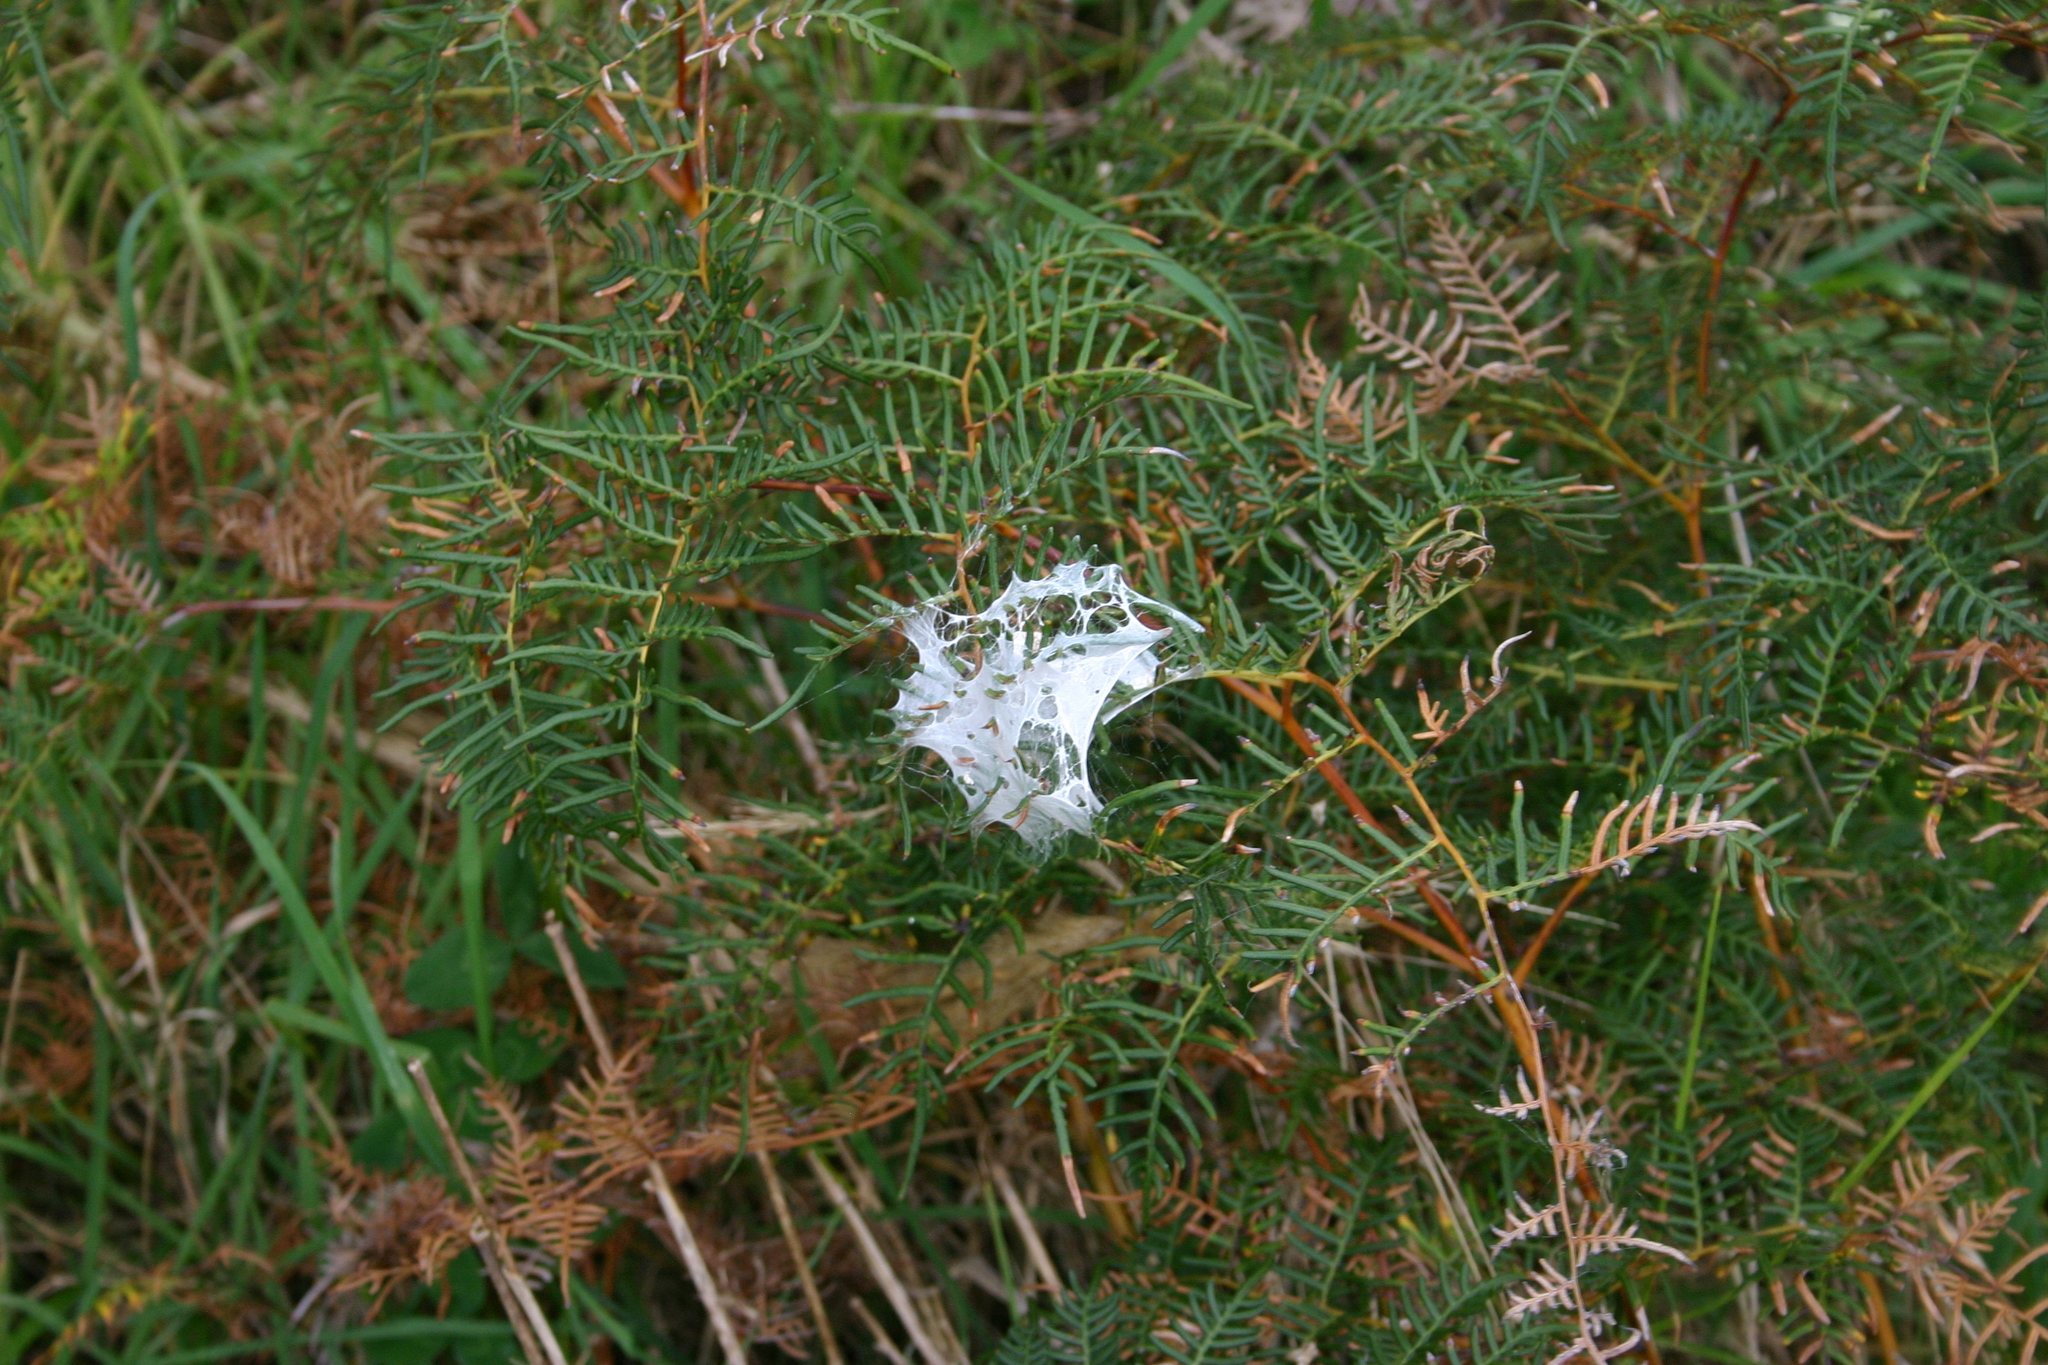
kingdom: Animalia
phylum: Arthropoda
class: Arachnida
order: Araneae
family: Pisauridae
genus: Dolomedes
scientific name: Dolomedes minor
